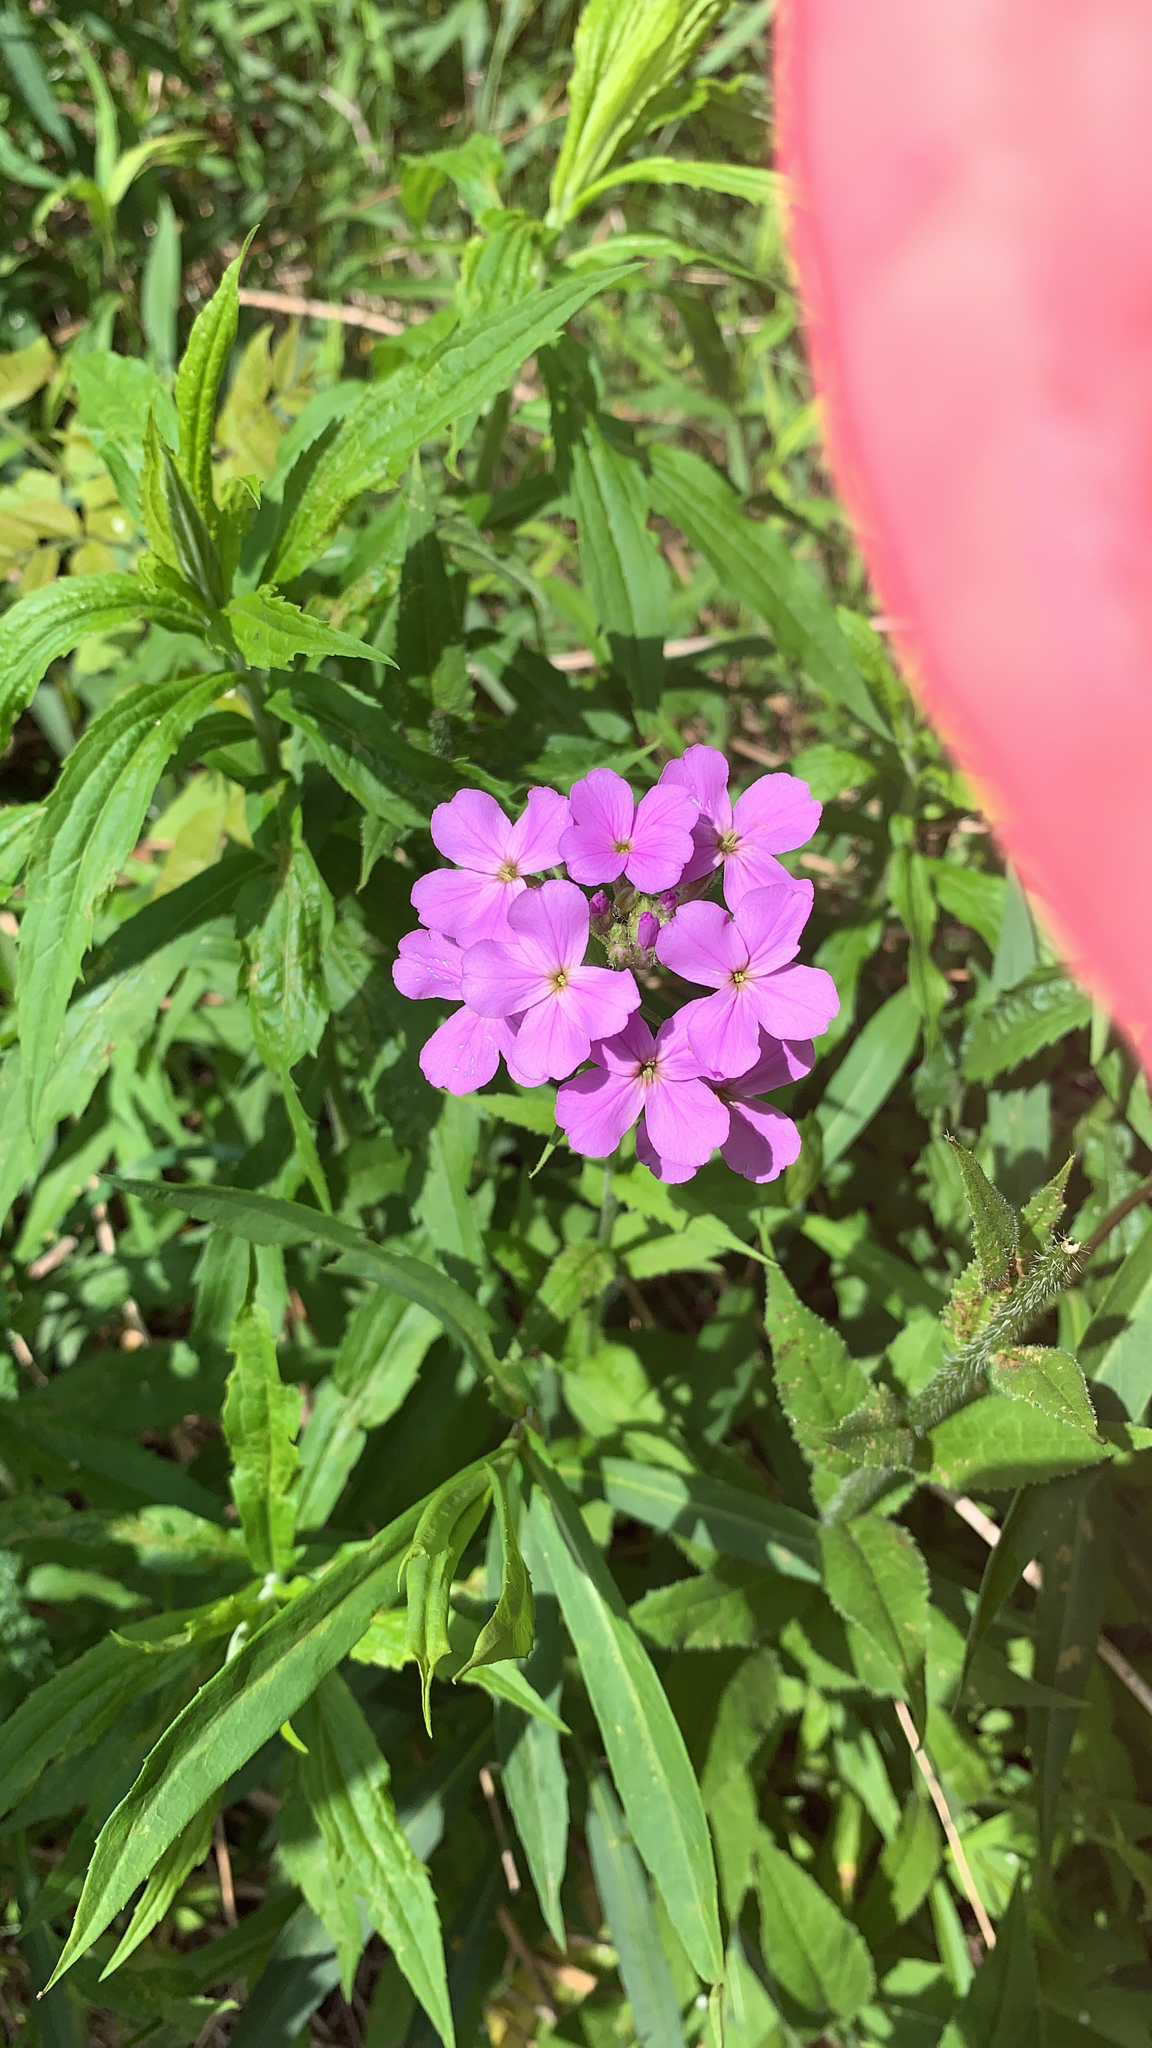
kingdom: Plantae
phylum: Tracheophyta
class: Magnoliopsida
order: Brassicales
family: Brassicaceae
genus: Hesperis
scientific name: Hesperis matronalis
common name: Dame's-violet
